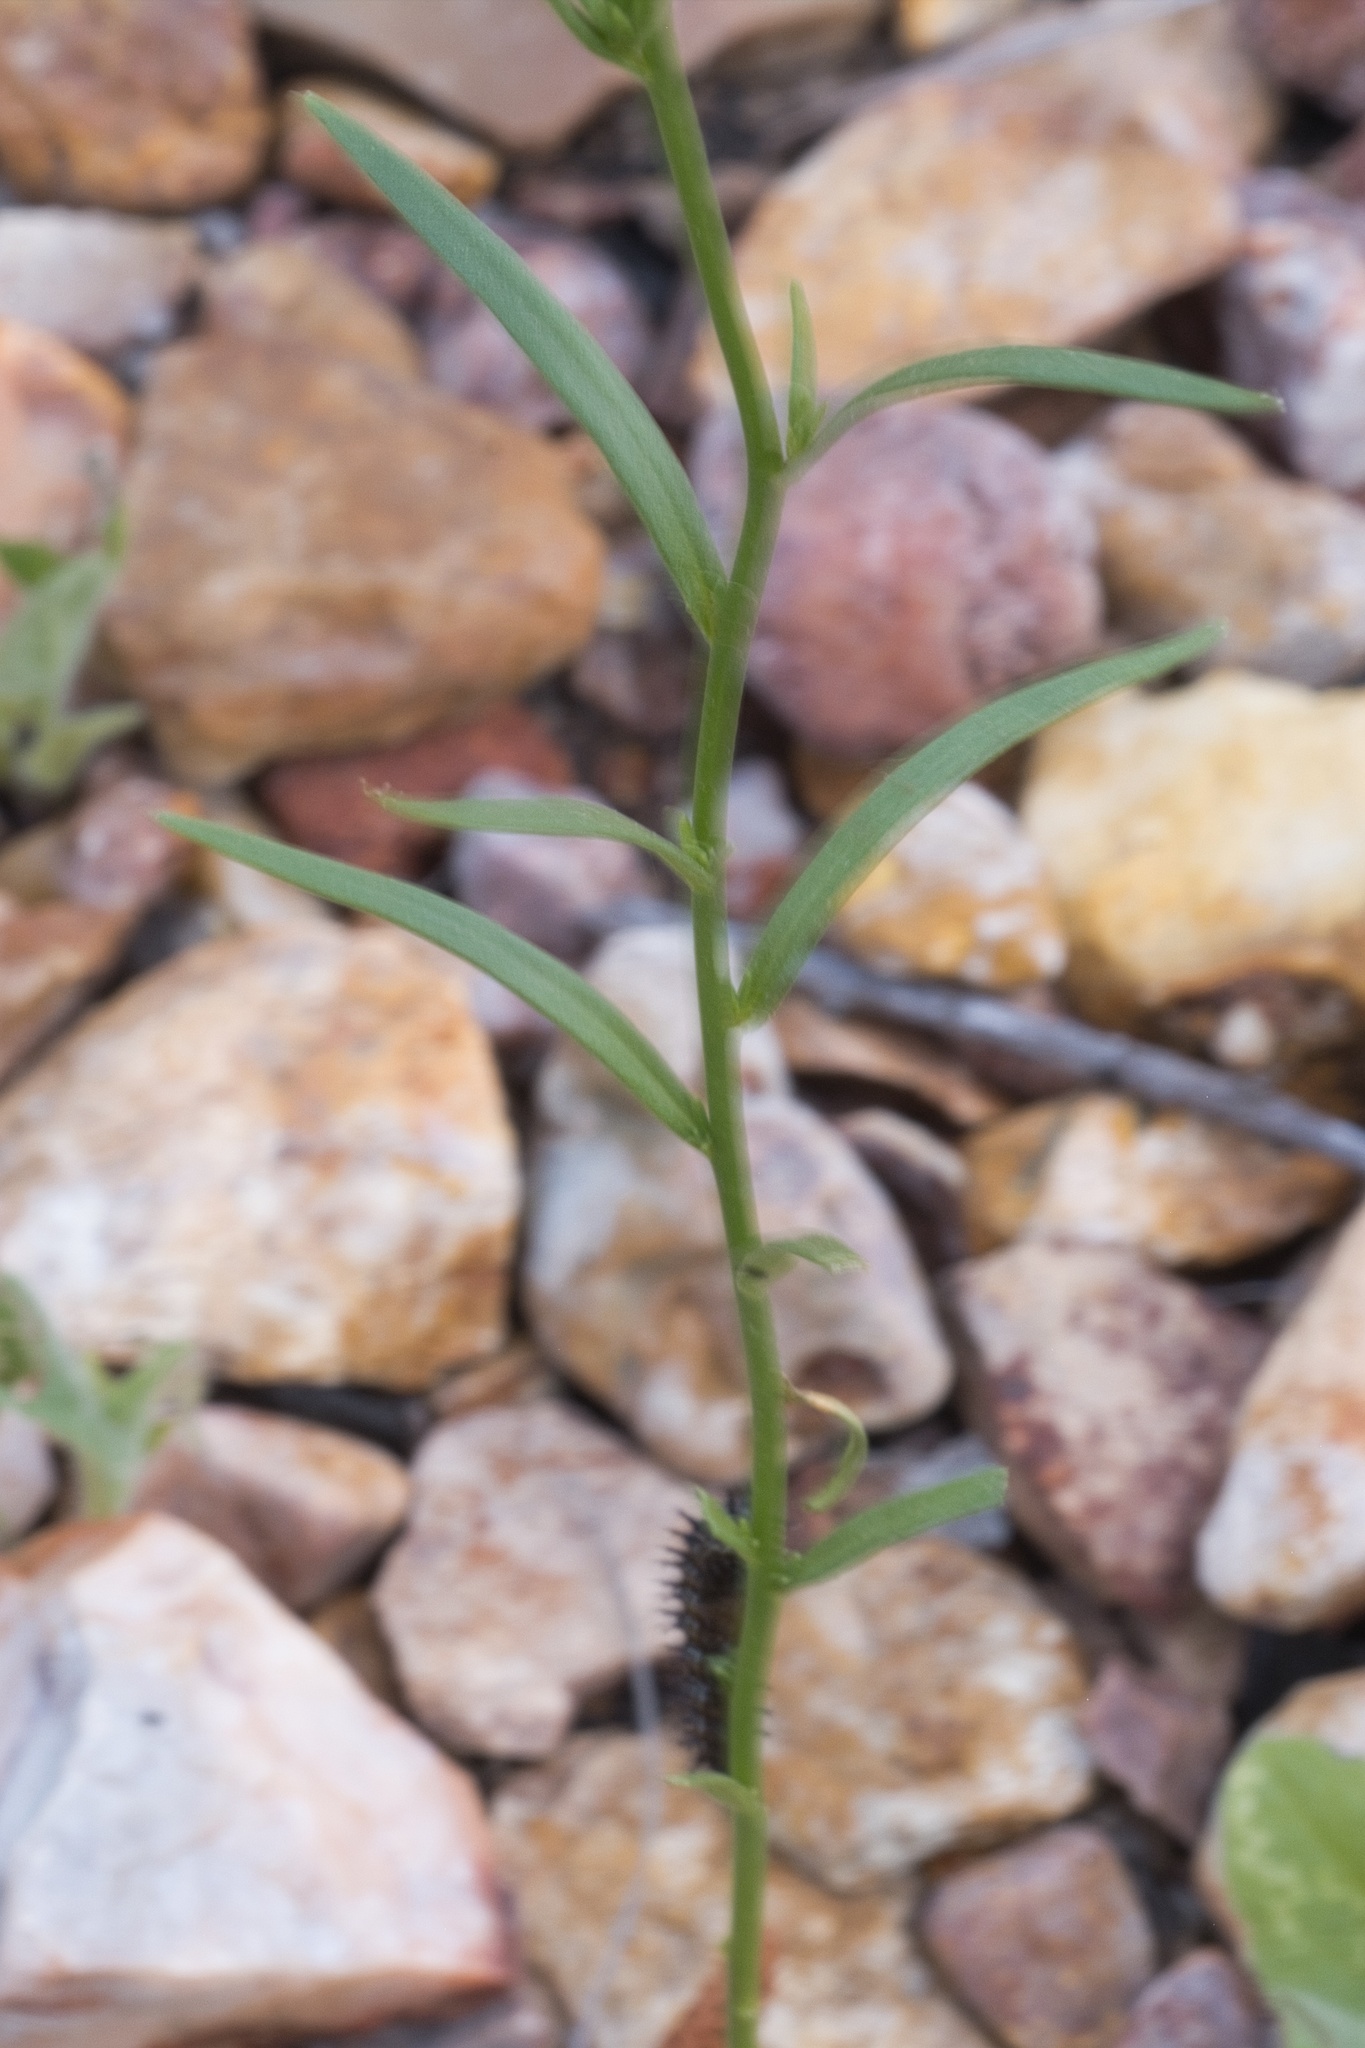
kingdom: Plantae
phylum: Tracheophyta
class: Magnoliopsida
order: Lamiales
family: Plantaginaceae
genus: Nuttallanthus
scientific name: Nuttallanthus texanus
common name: Texas toadflax
